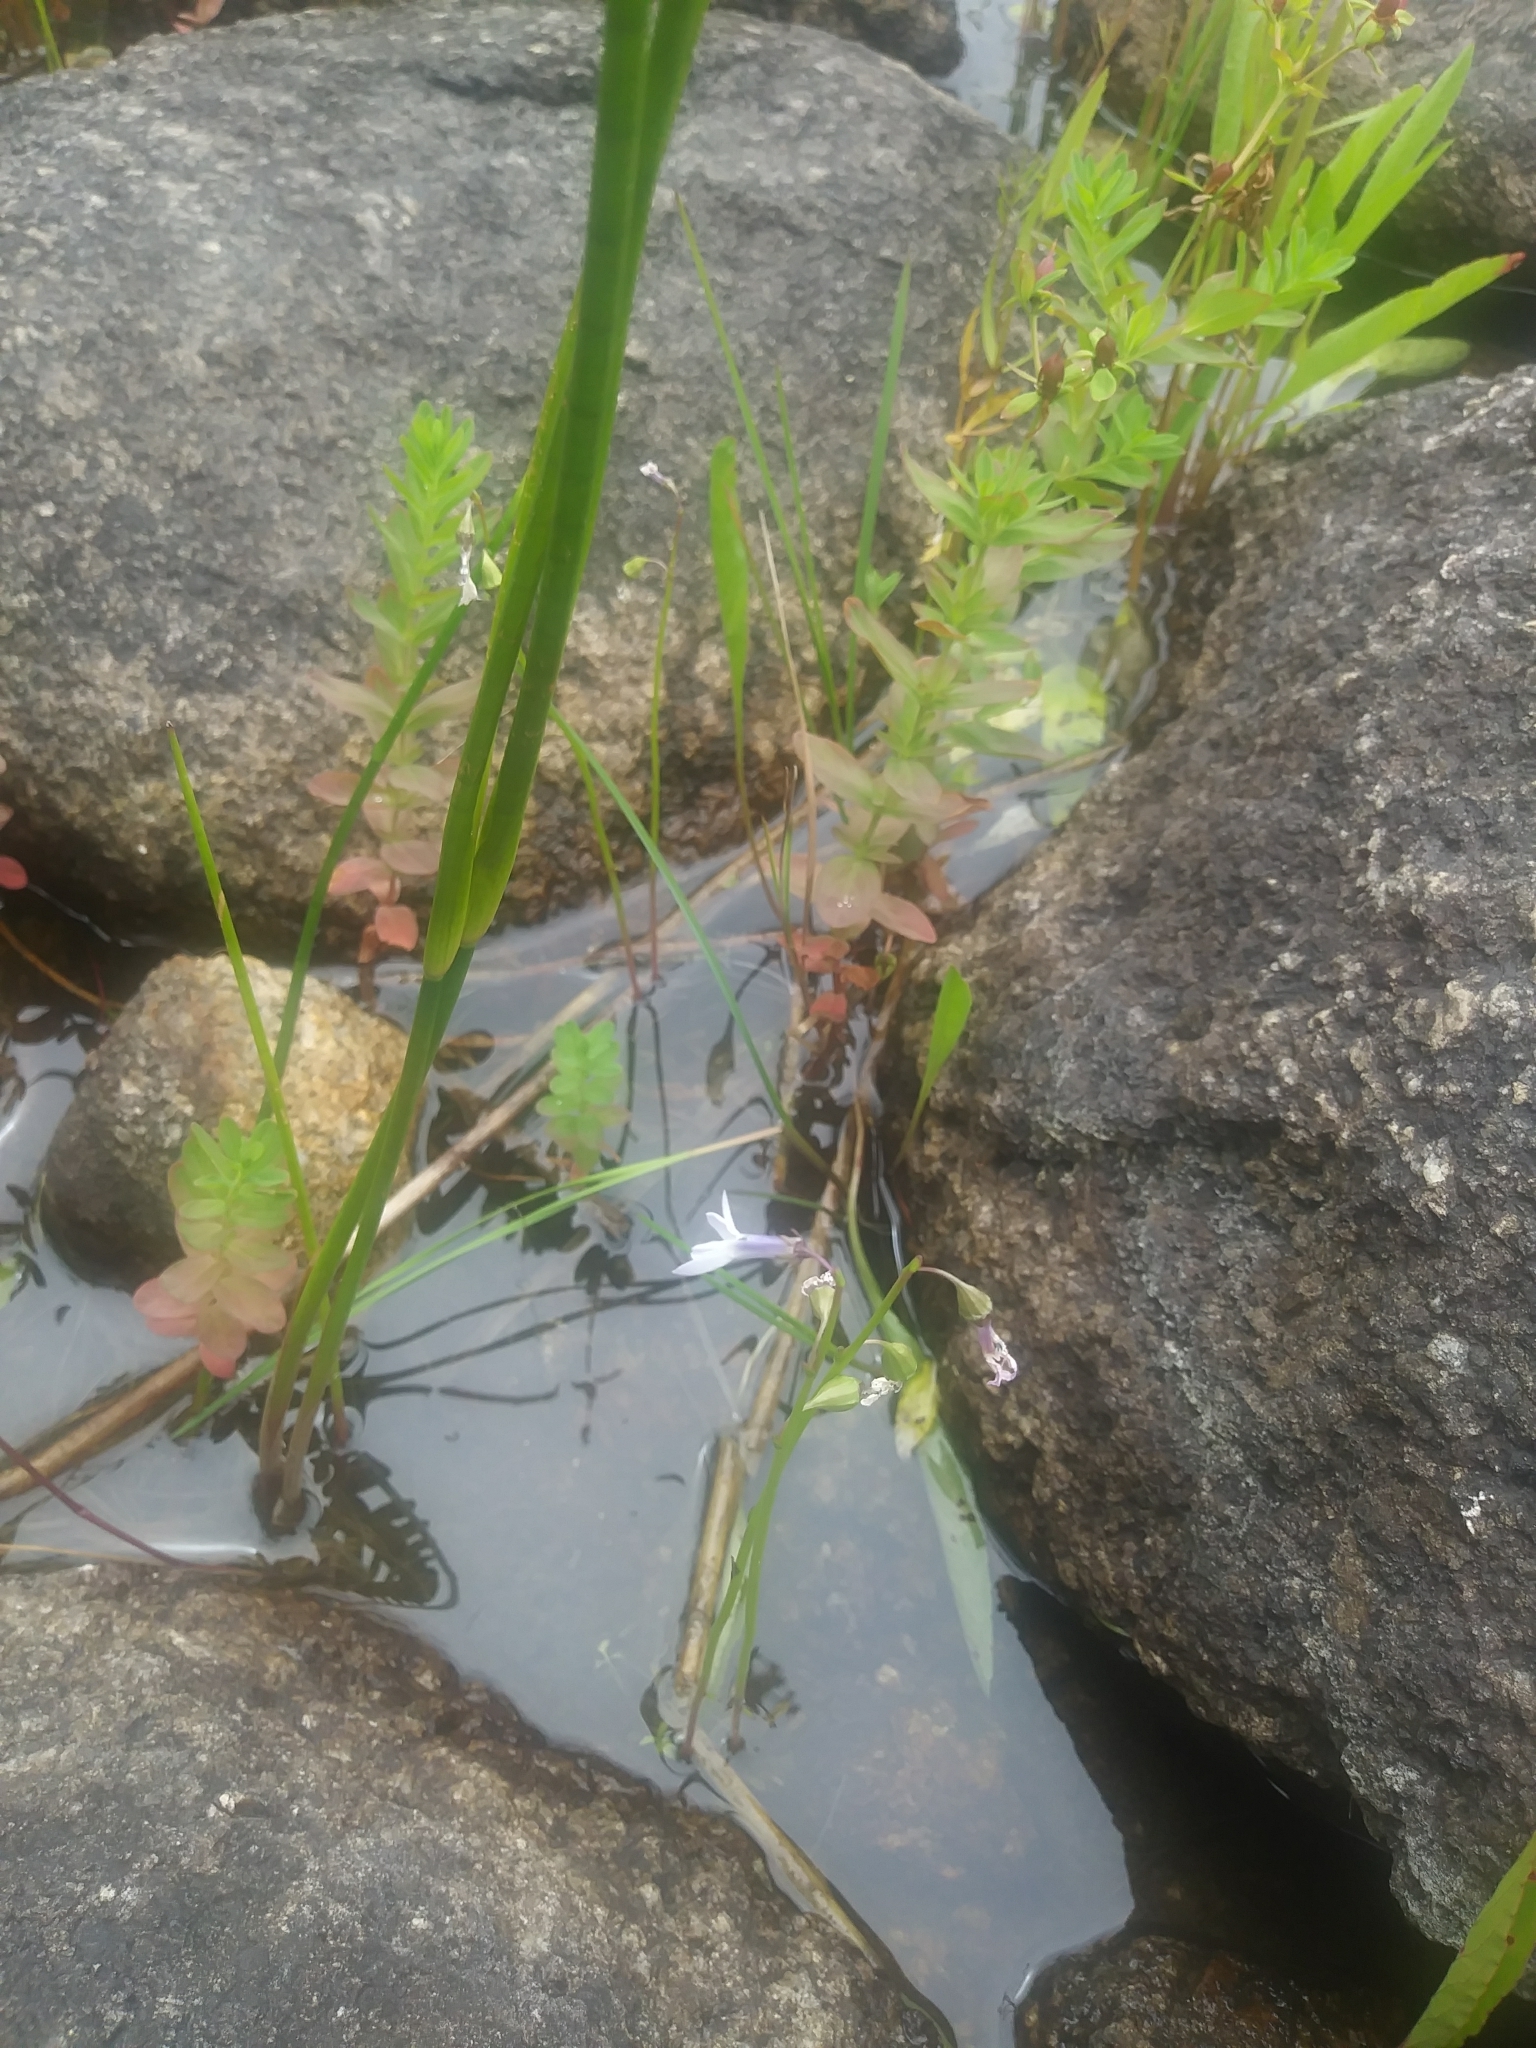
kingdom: Plantae
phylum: Tracheophyta
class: Magnoliopsida
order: Asterales
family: Campanulaceae
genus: Lobelia
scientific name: Lobelia dortmanna
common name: Water lobelia
